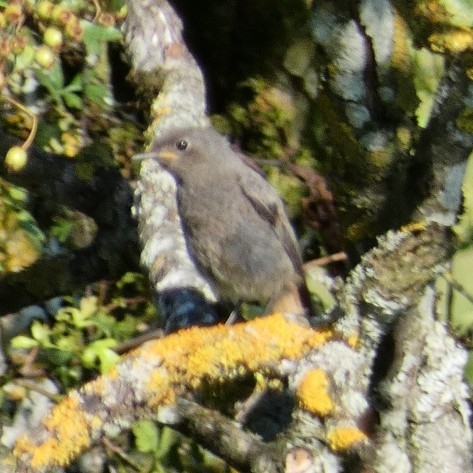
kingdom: Animalia
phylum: Chordata
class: Aves
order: Passeriformes
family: Muscicapidae
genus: Phoenicurus
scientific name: Phoenicurus ochruros
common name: Black redstart
